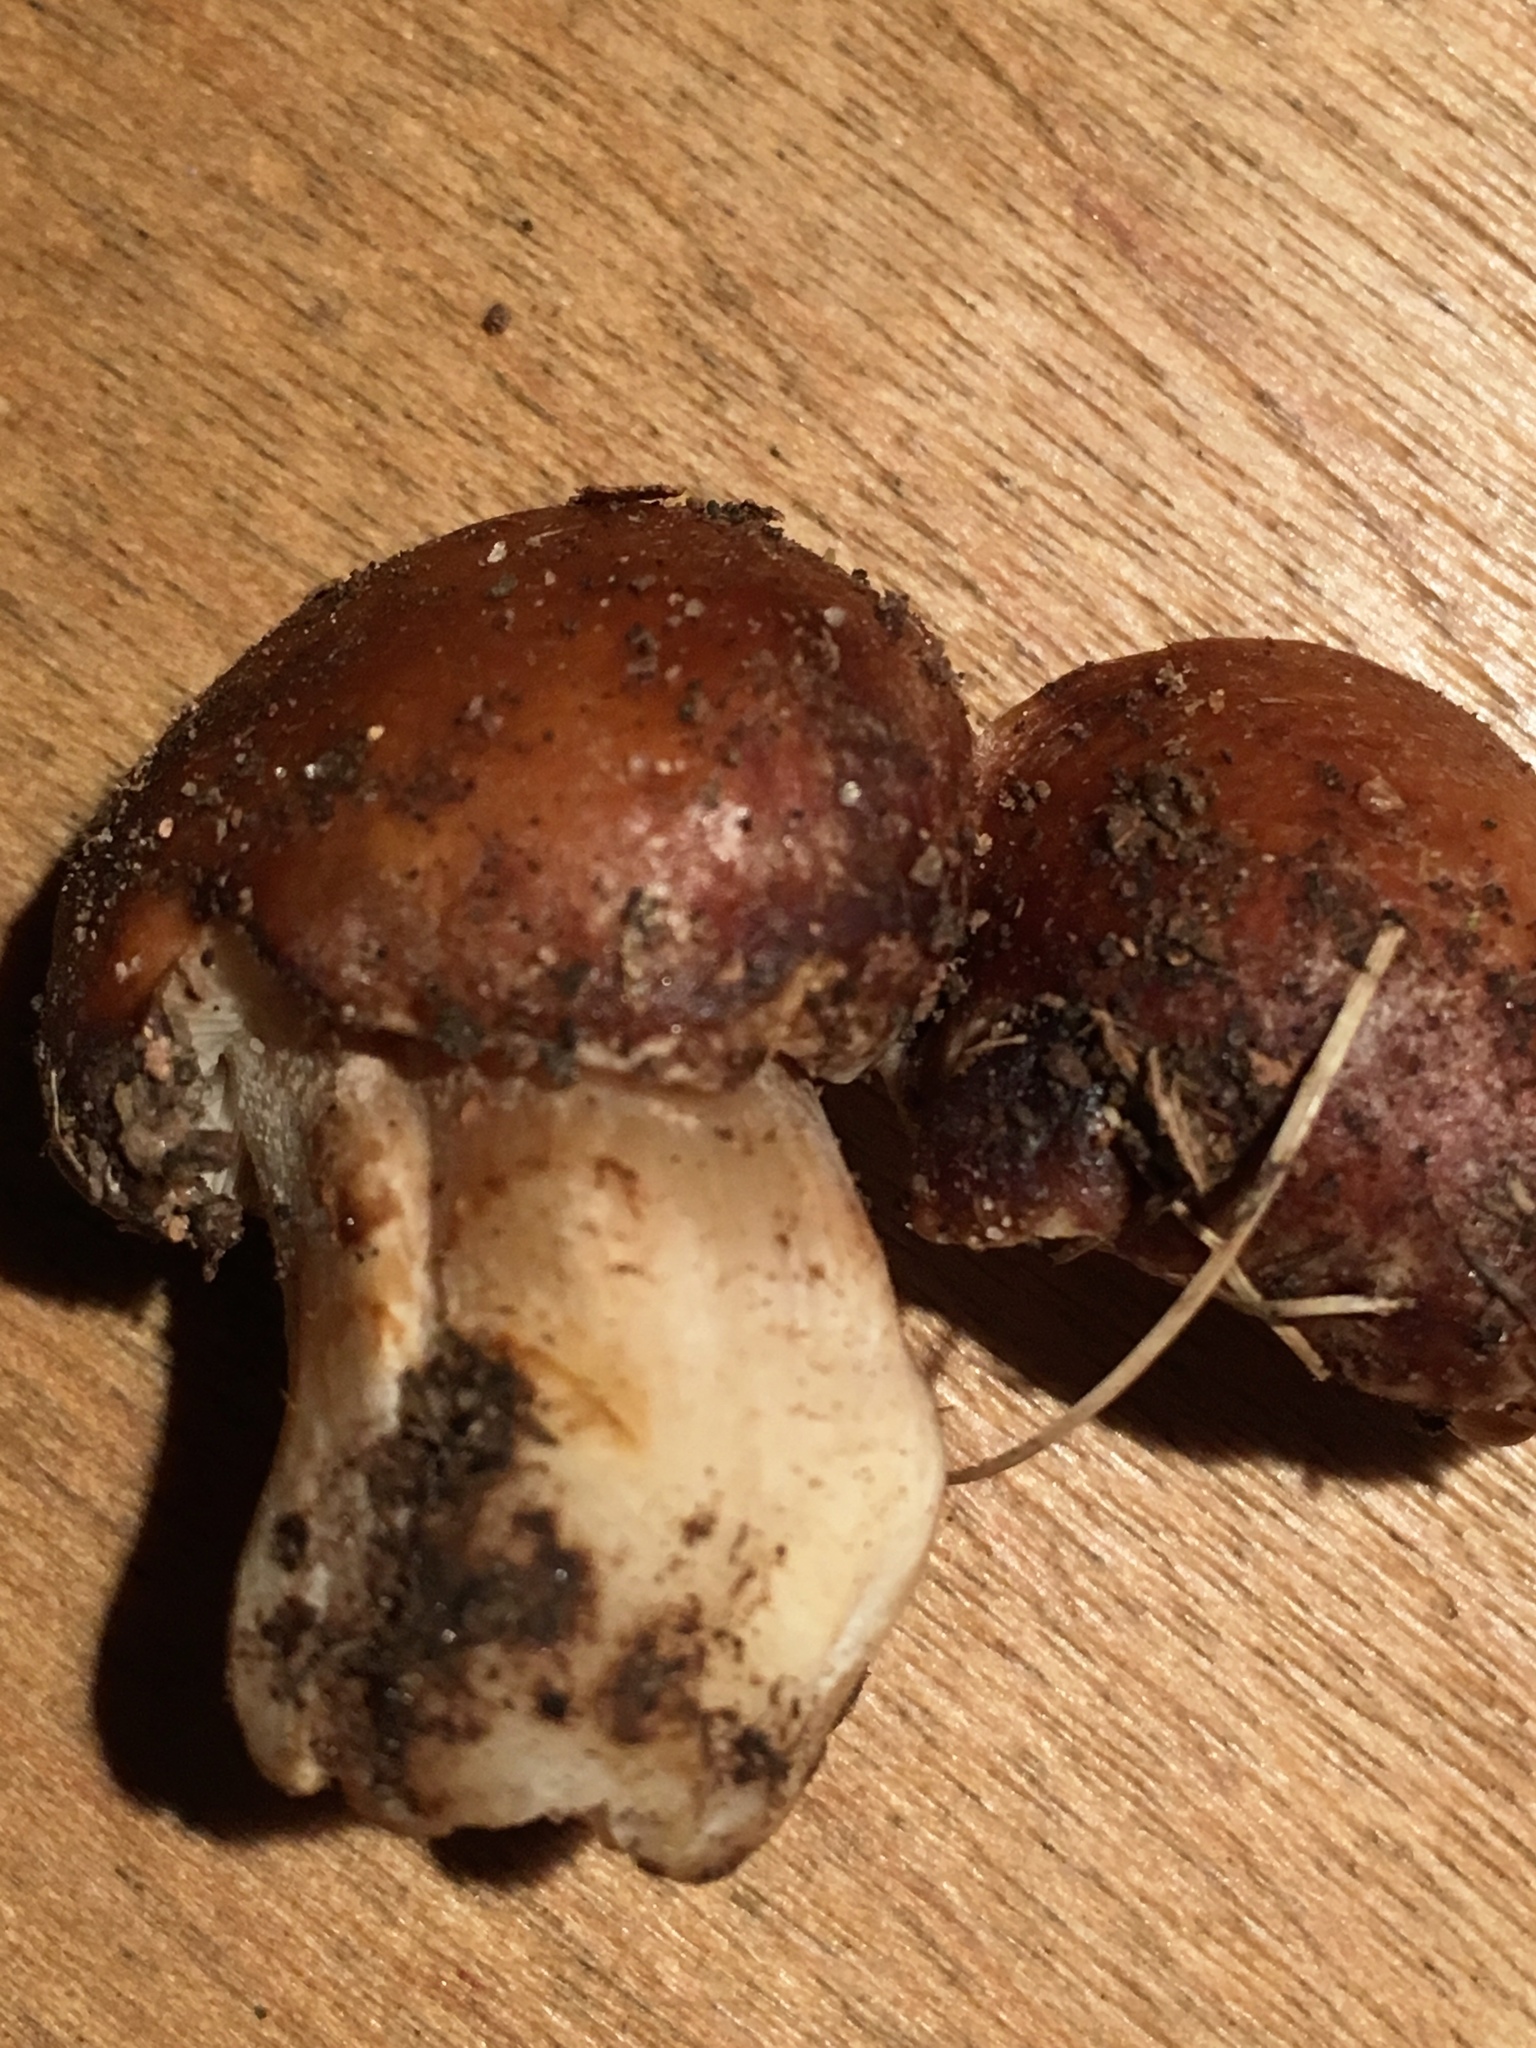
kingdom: Fungi
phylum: Basidiomycota
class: Agaricomycetes
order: Agaricales
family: Hymenogastraceae
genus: Hebeloma
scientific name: Hebeloma crustuliniforme
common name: Poison pie
